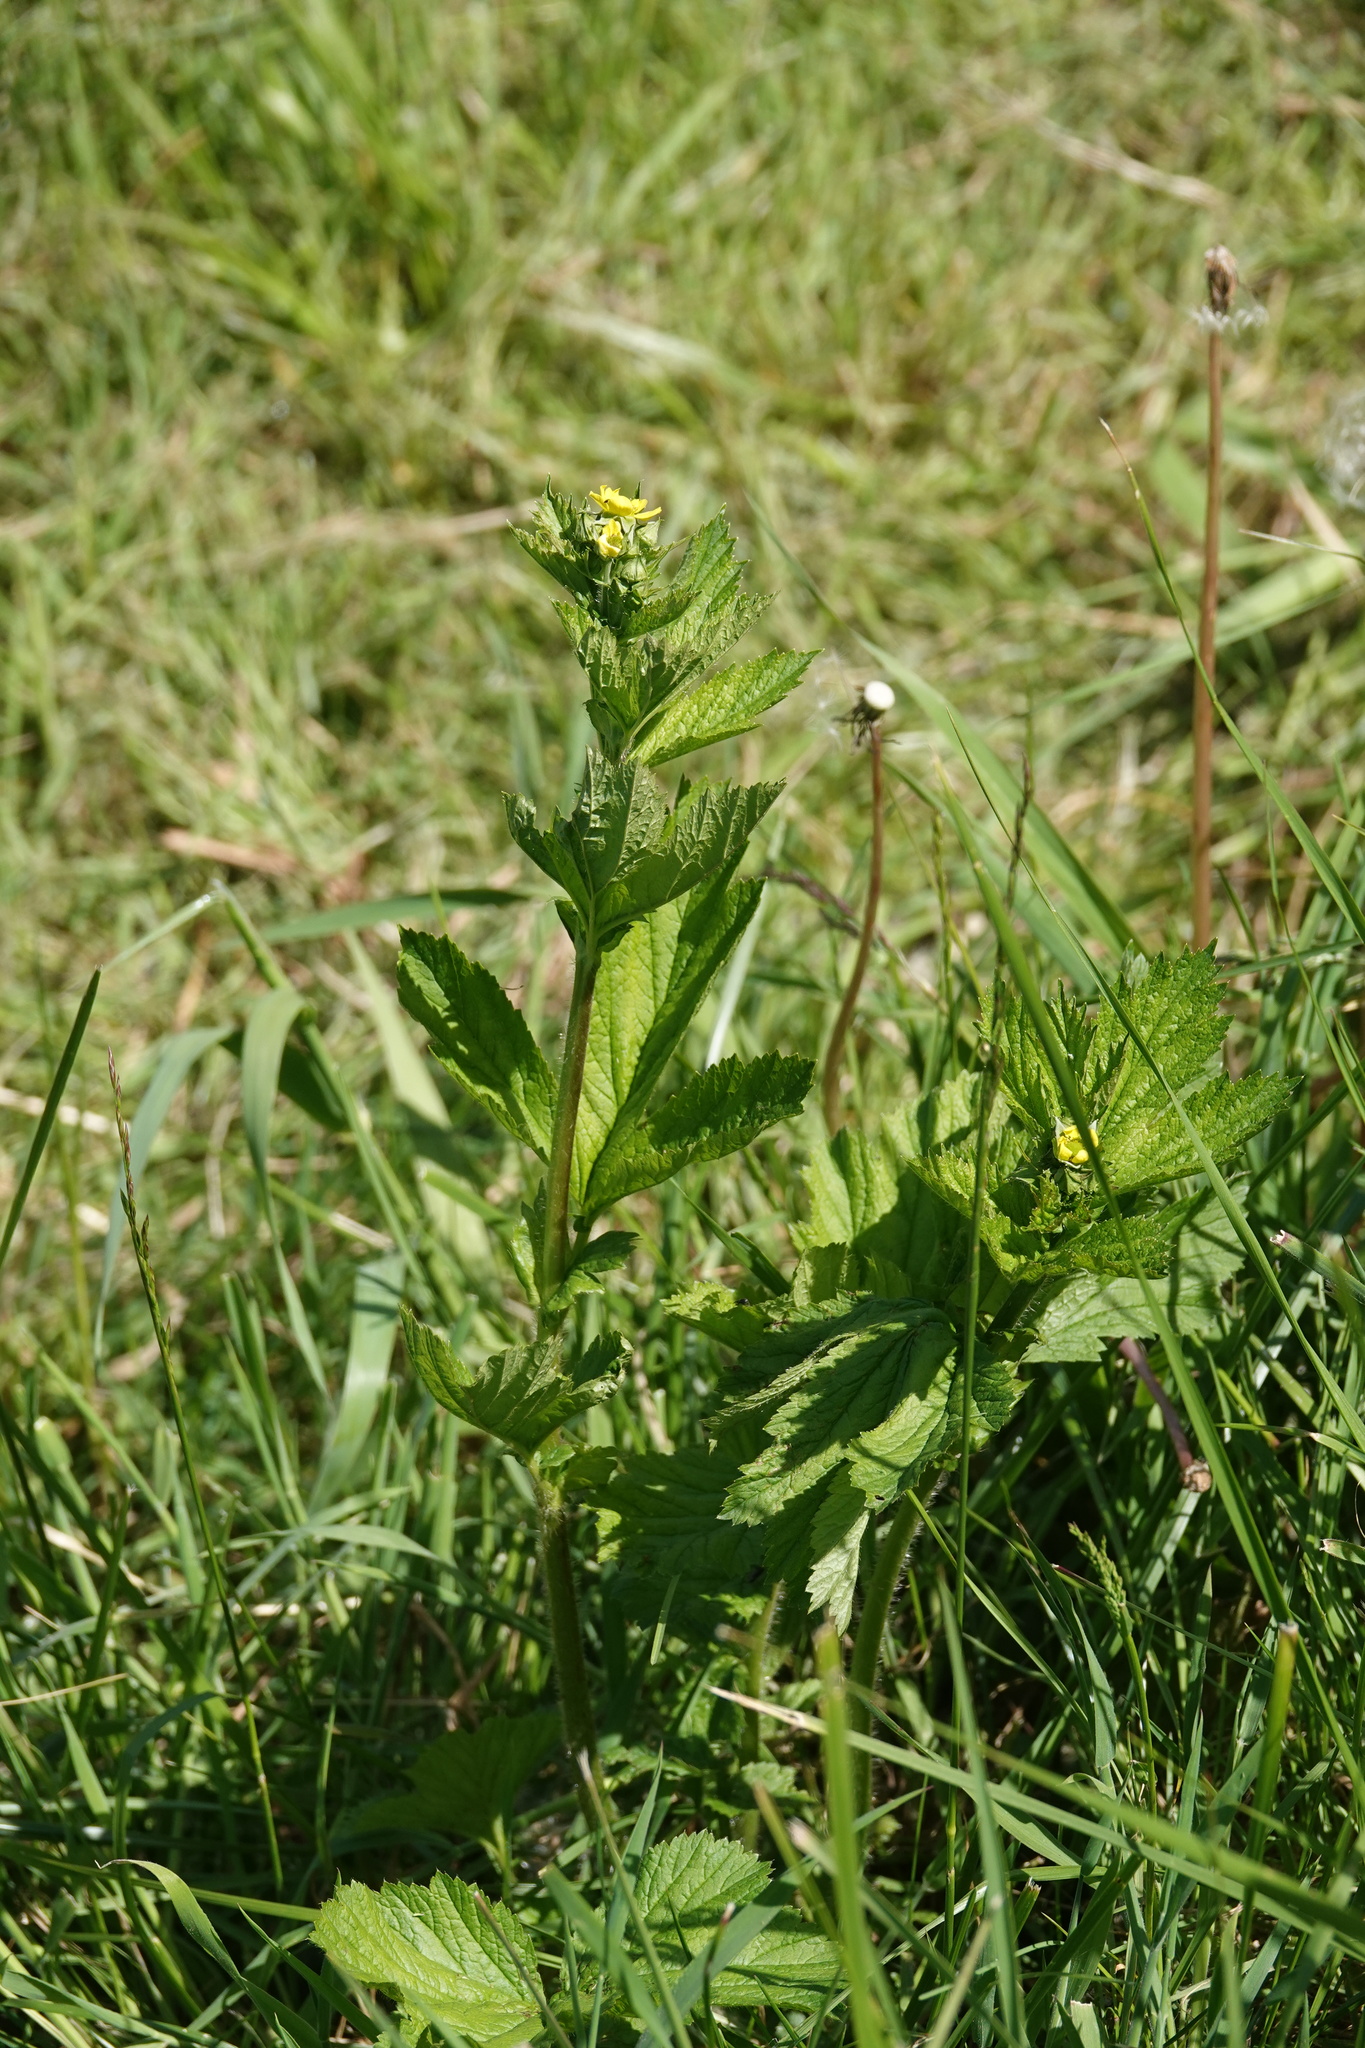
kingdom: Plantae
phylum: Tracheophyta
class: Magnoliopsida
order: Rosales
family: Rosaceae
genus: Geum
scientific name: Geum macrophyllum
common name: Large-leaved avens
